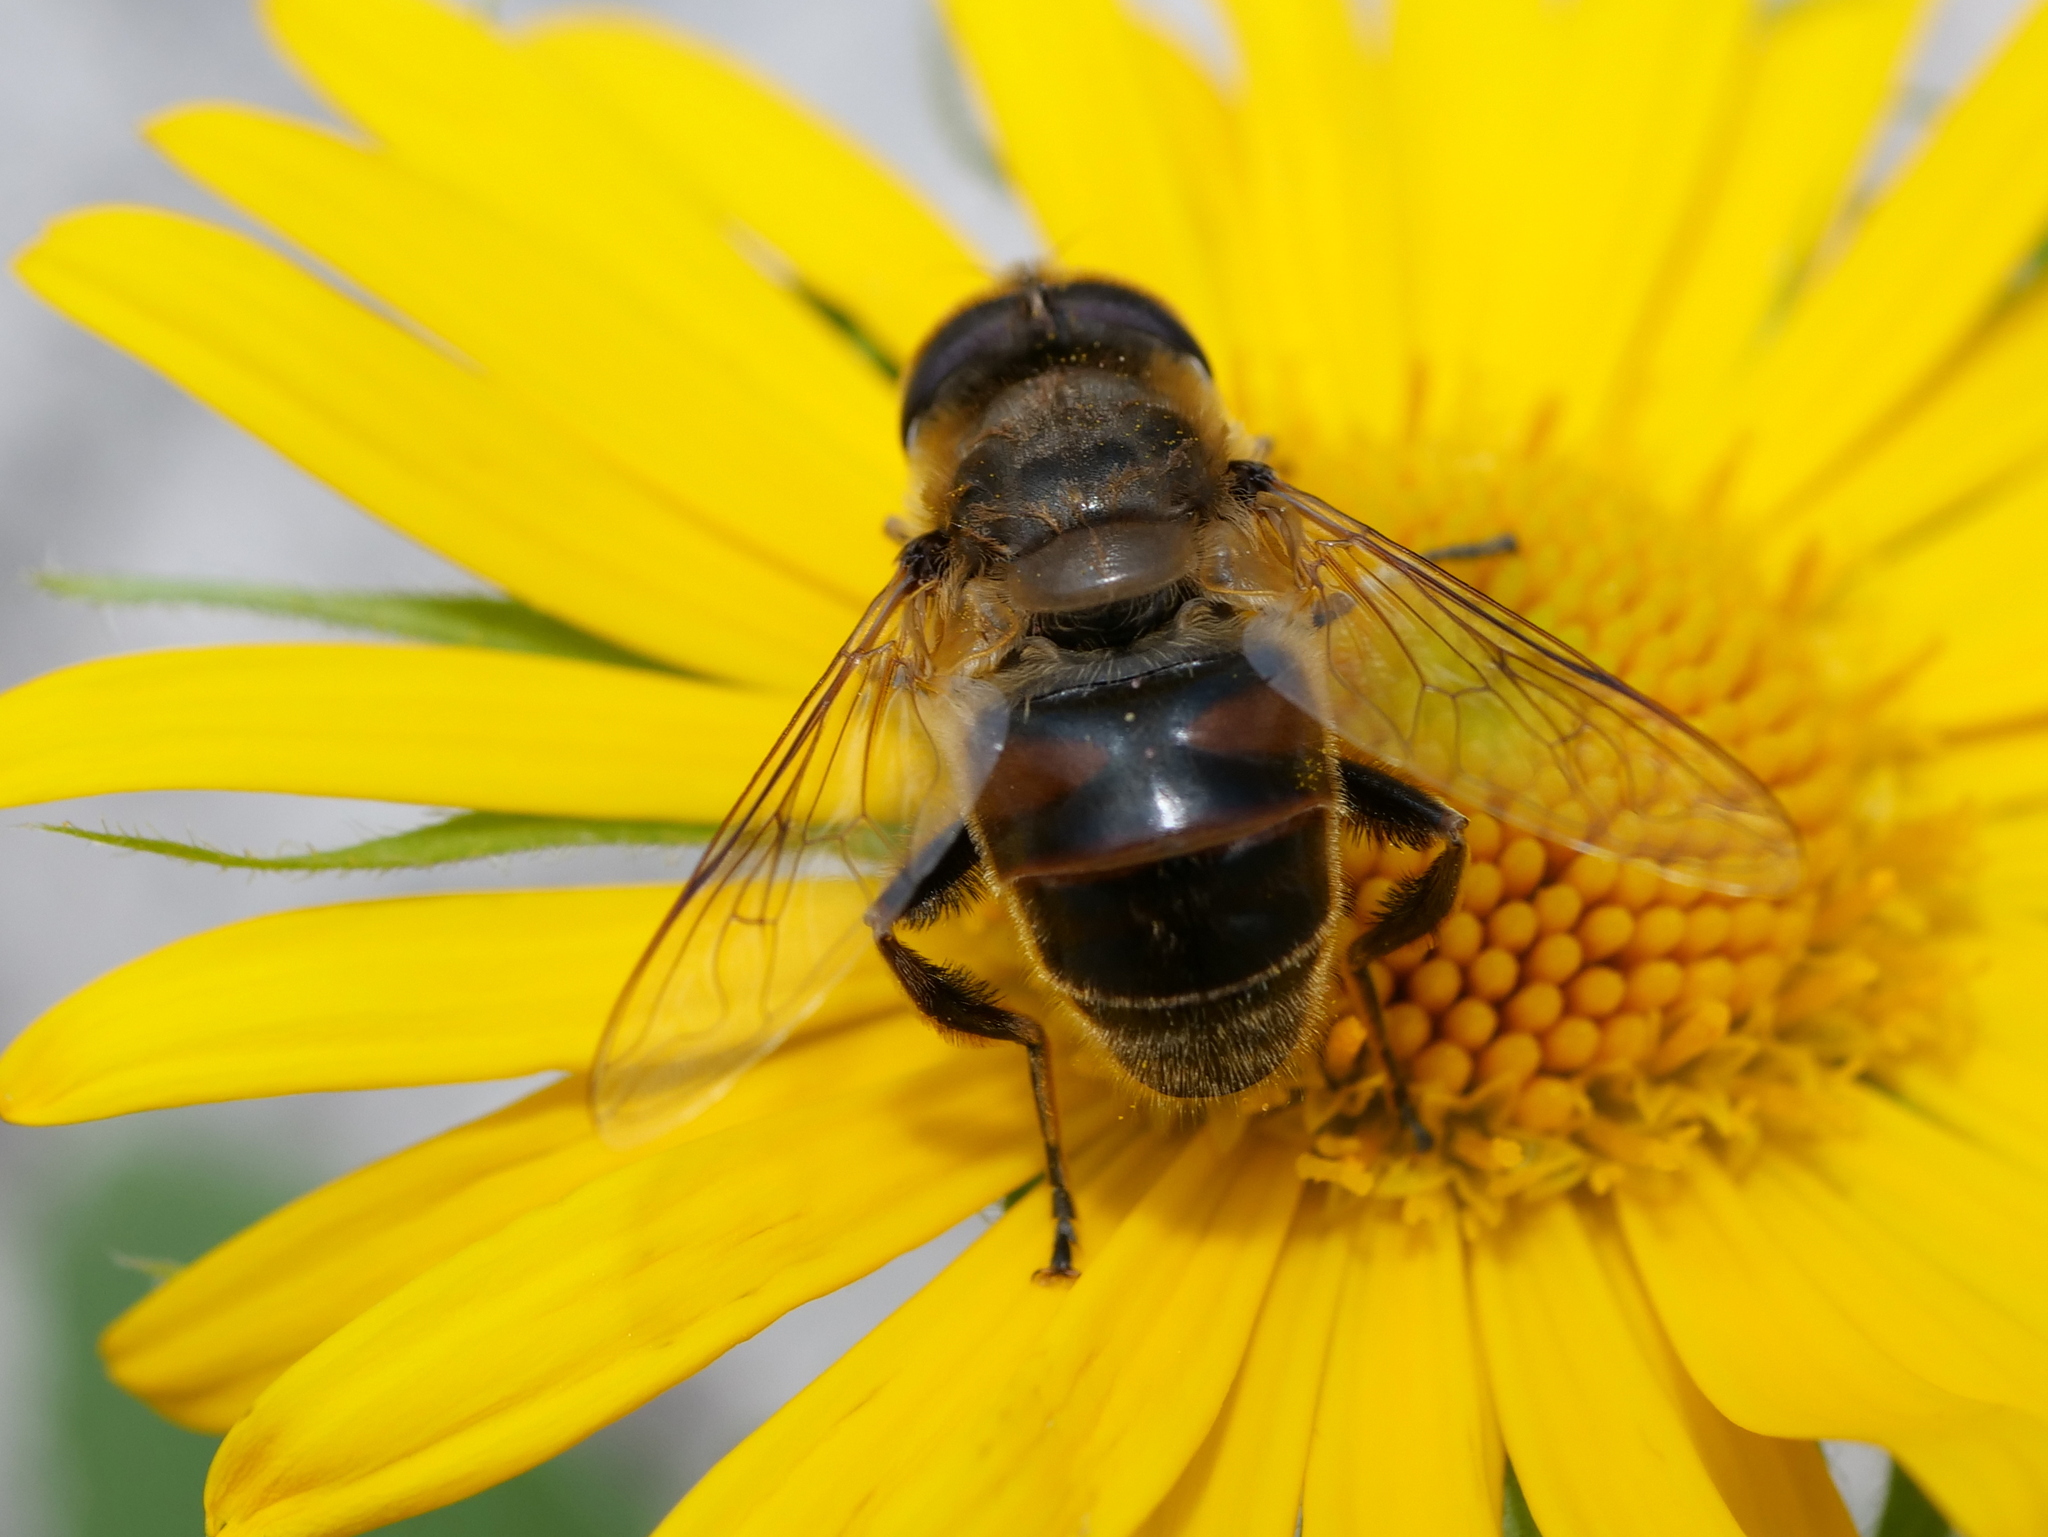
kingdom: Animalia
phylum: Arthropoda
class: Insecta
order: Diptera
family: Syrphidae
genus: Eristalis
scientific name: Eristalis tenax
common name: Drone fly
